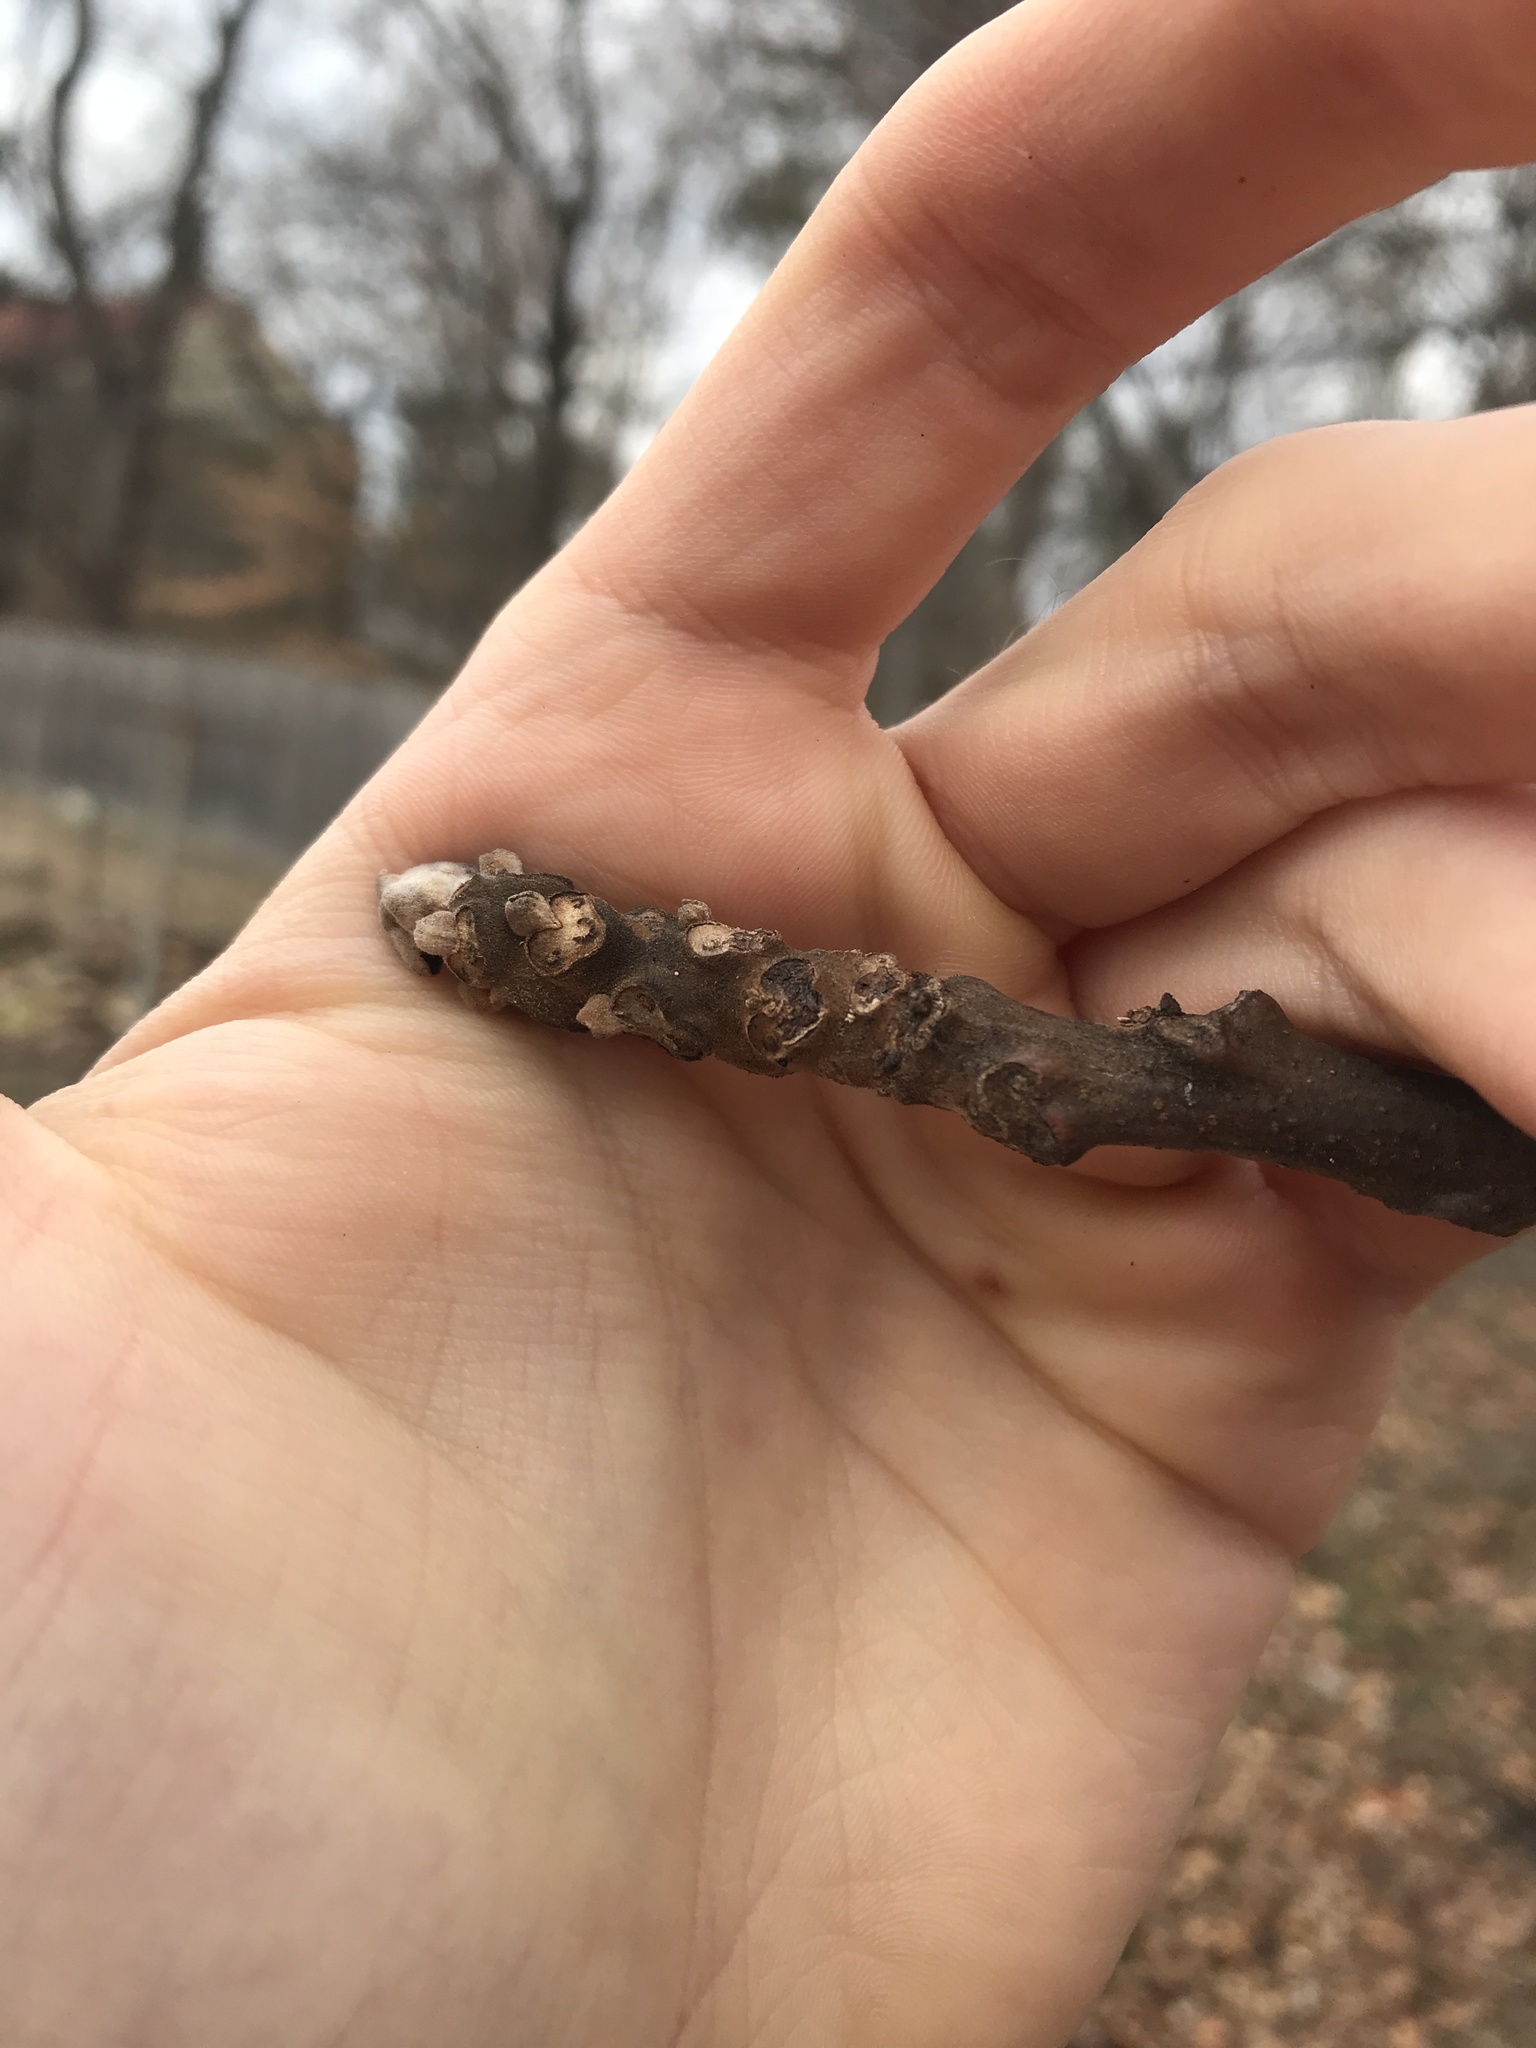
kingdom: Plantae
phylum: Tracheophyta
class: Magnoliopsida
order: Fagales
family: Juglandaceae
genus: Juglans
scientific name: Juglans nigra
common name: Black walnut
